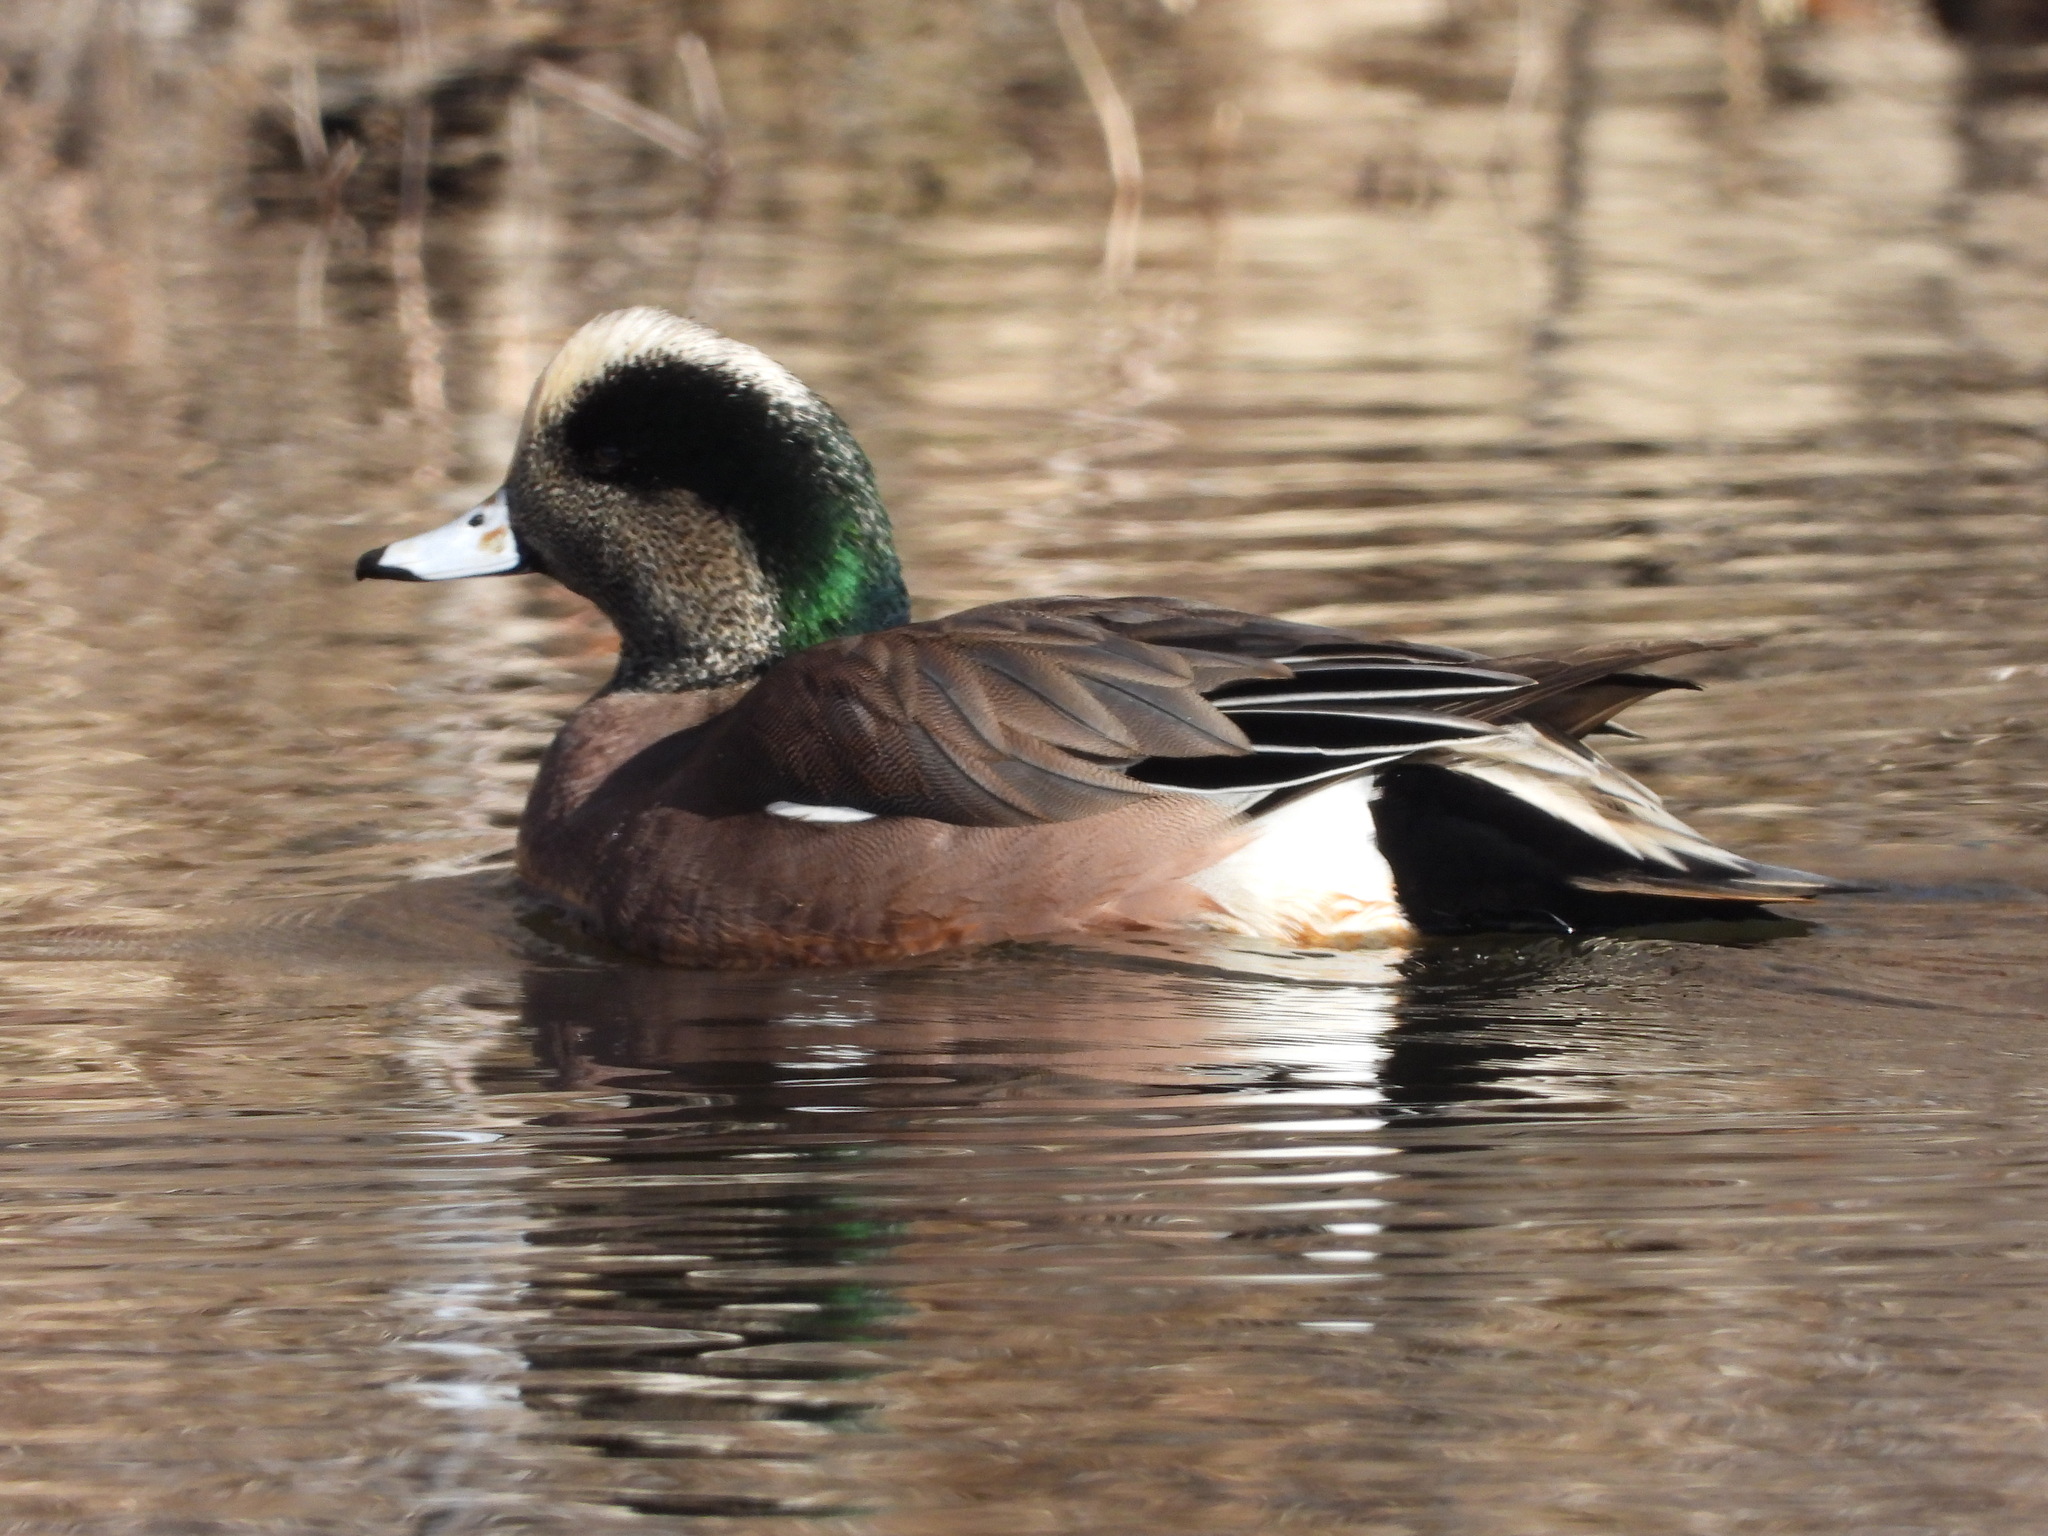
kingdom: Animalia
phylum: Chordata
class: Aves
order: Anseriformes
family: Anatidae
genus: Mareca
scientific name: Mareca americana
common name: American wigeon
